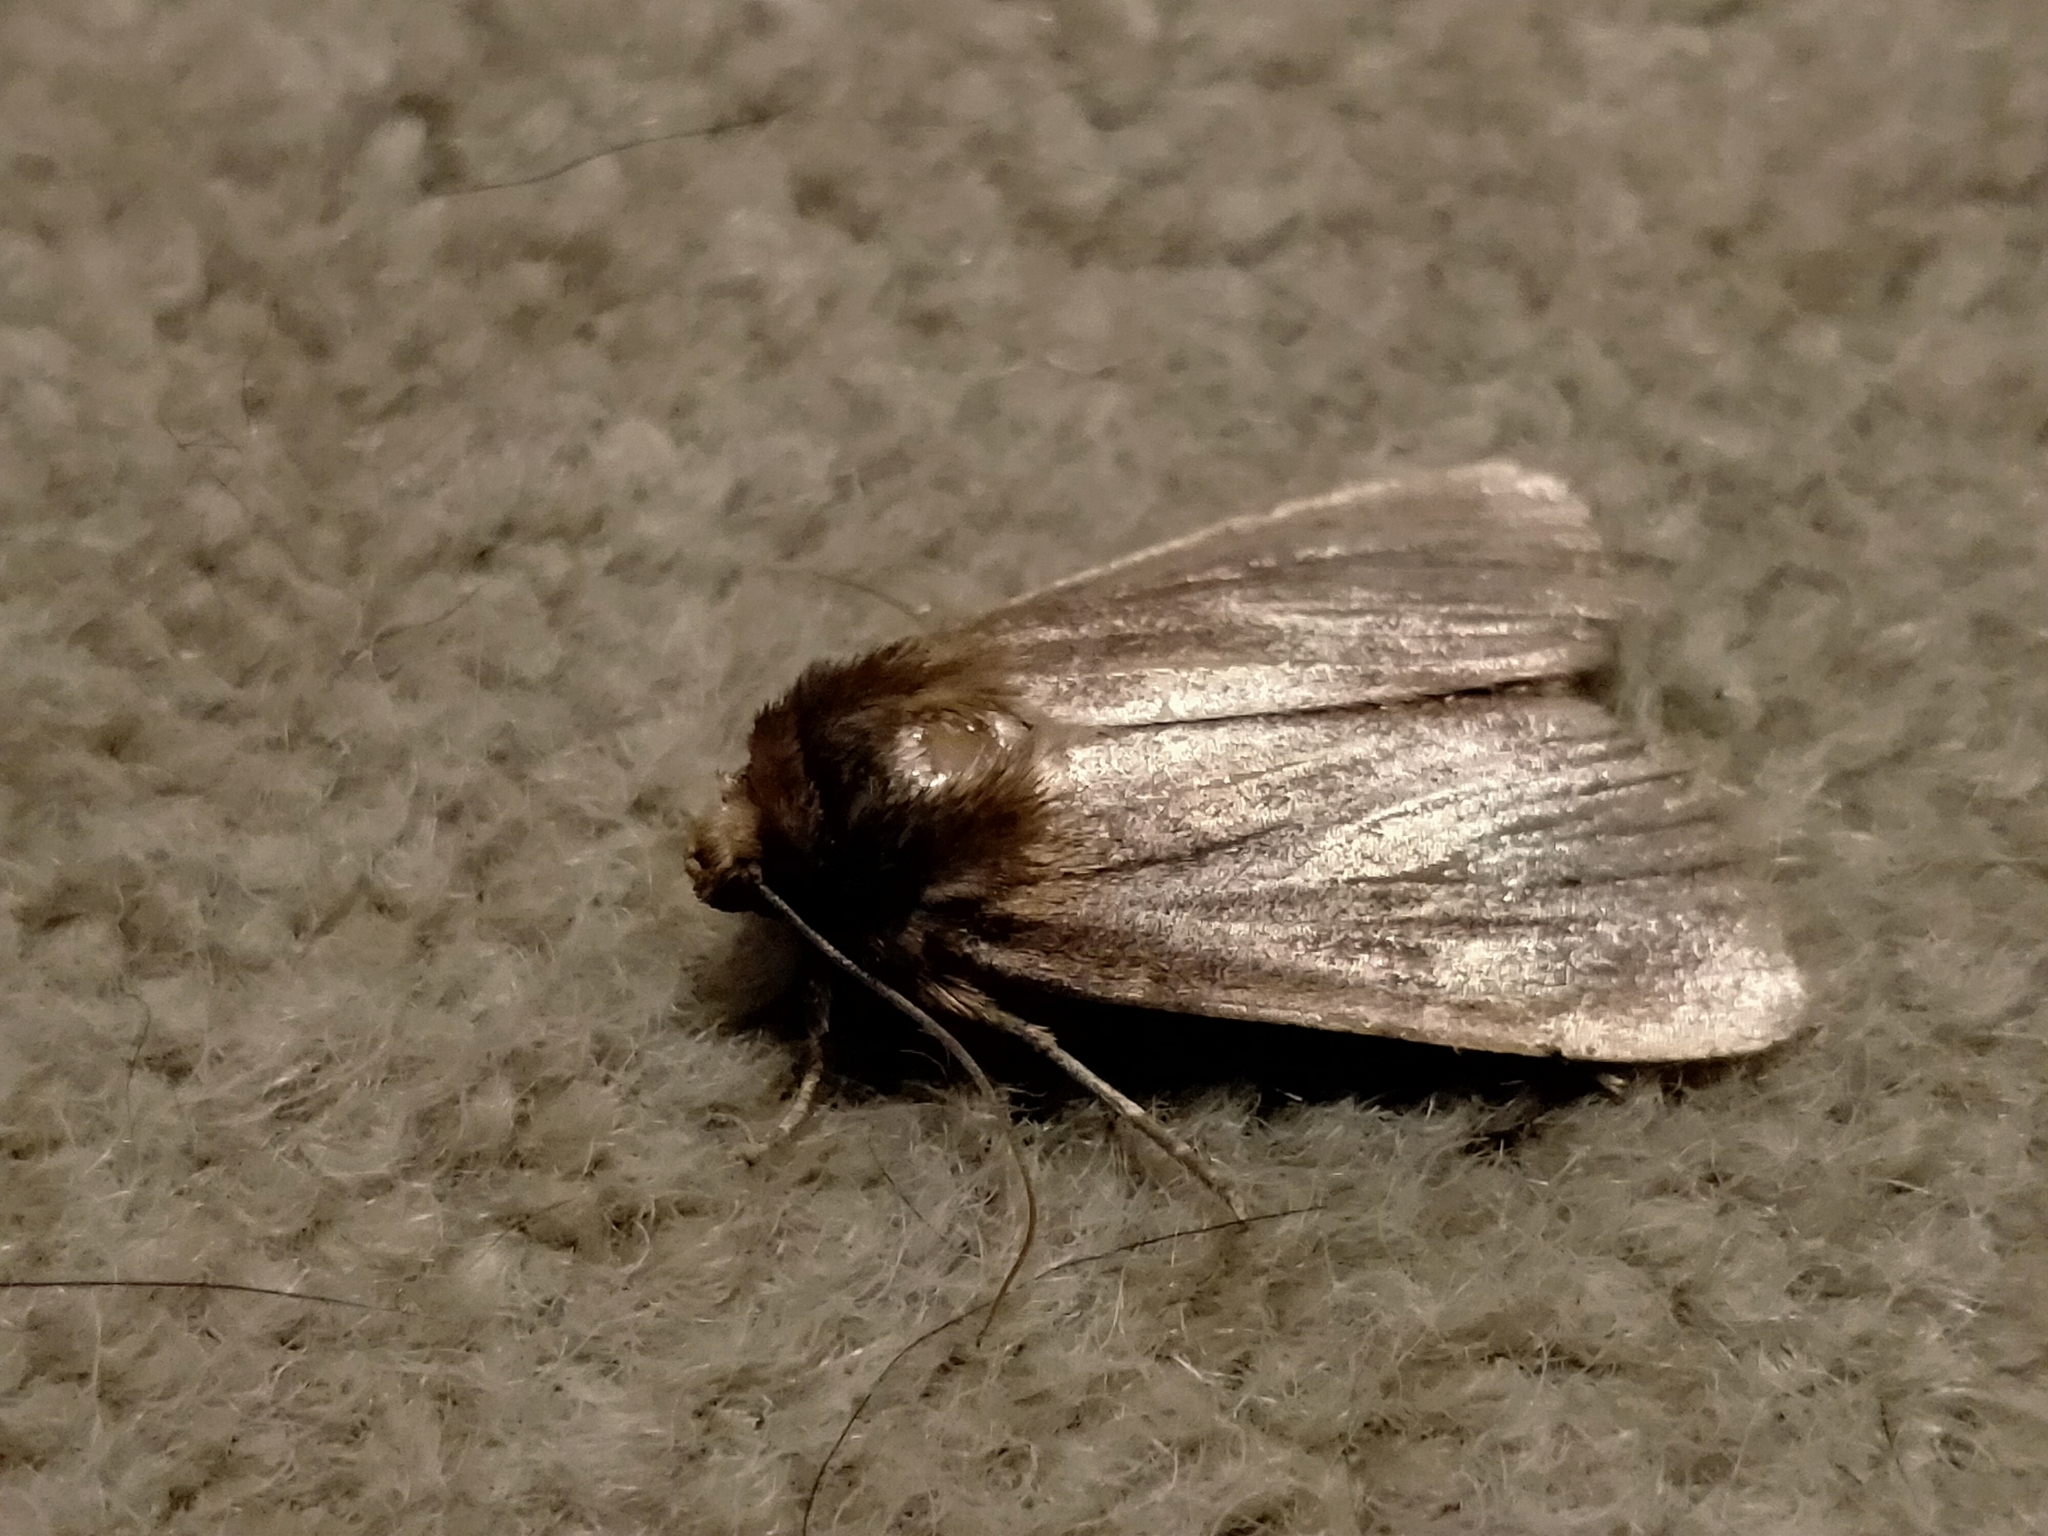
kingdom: Animalia
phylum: Arthropoda
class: Insecta
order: Lepidoptera
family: Noctuidae
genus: Bityla
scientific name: Bityla defigurata
